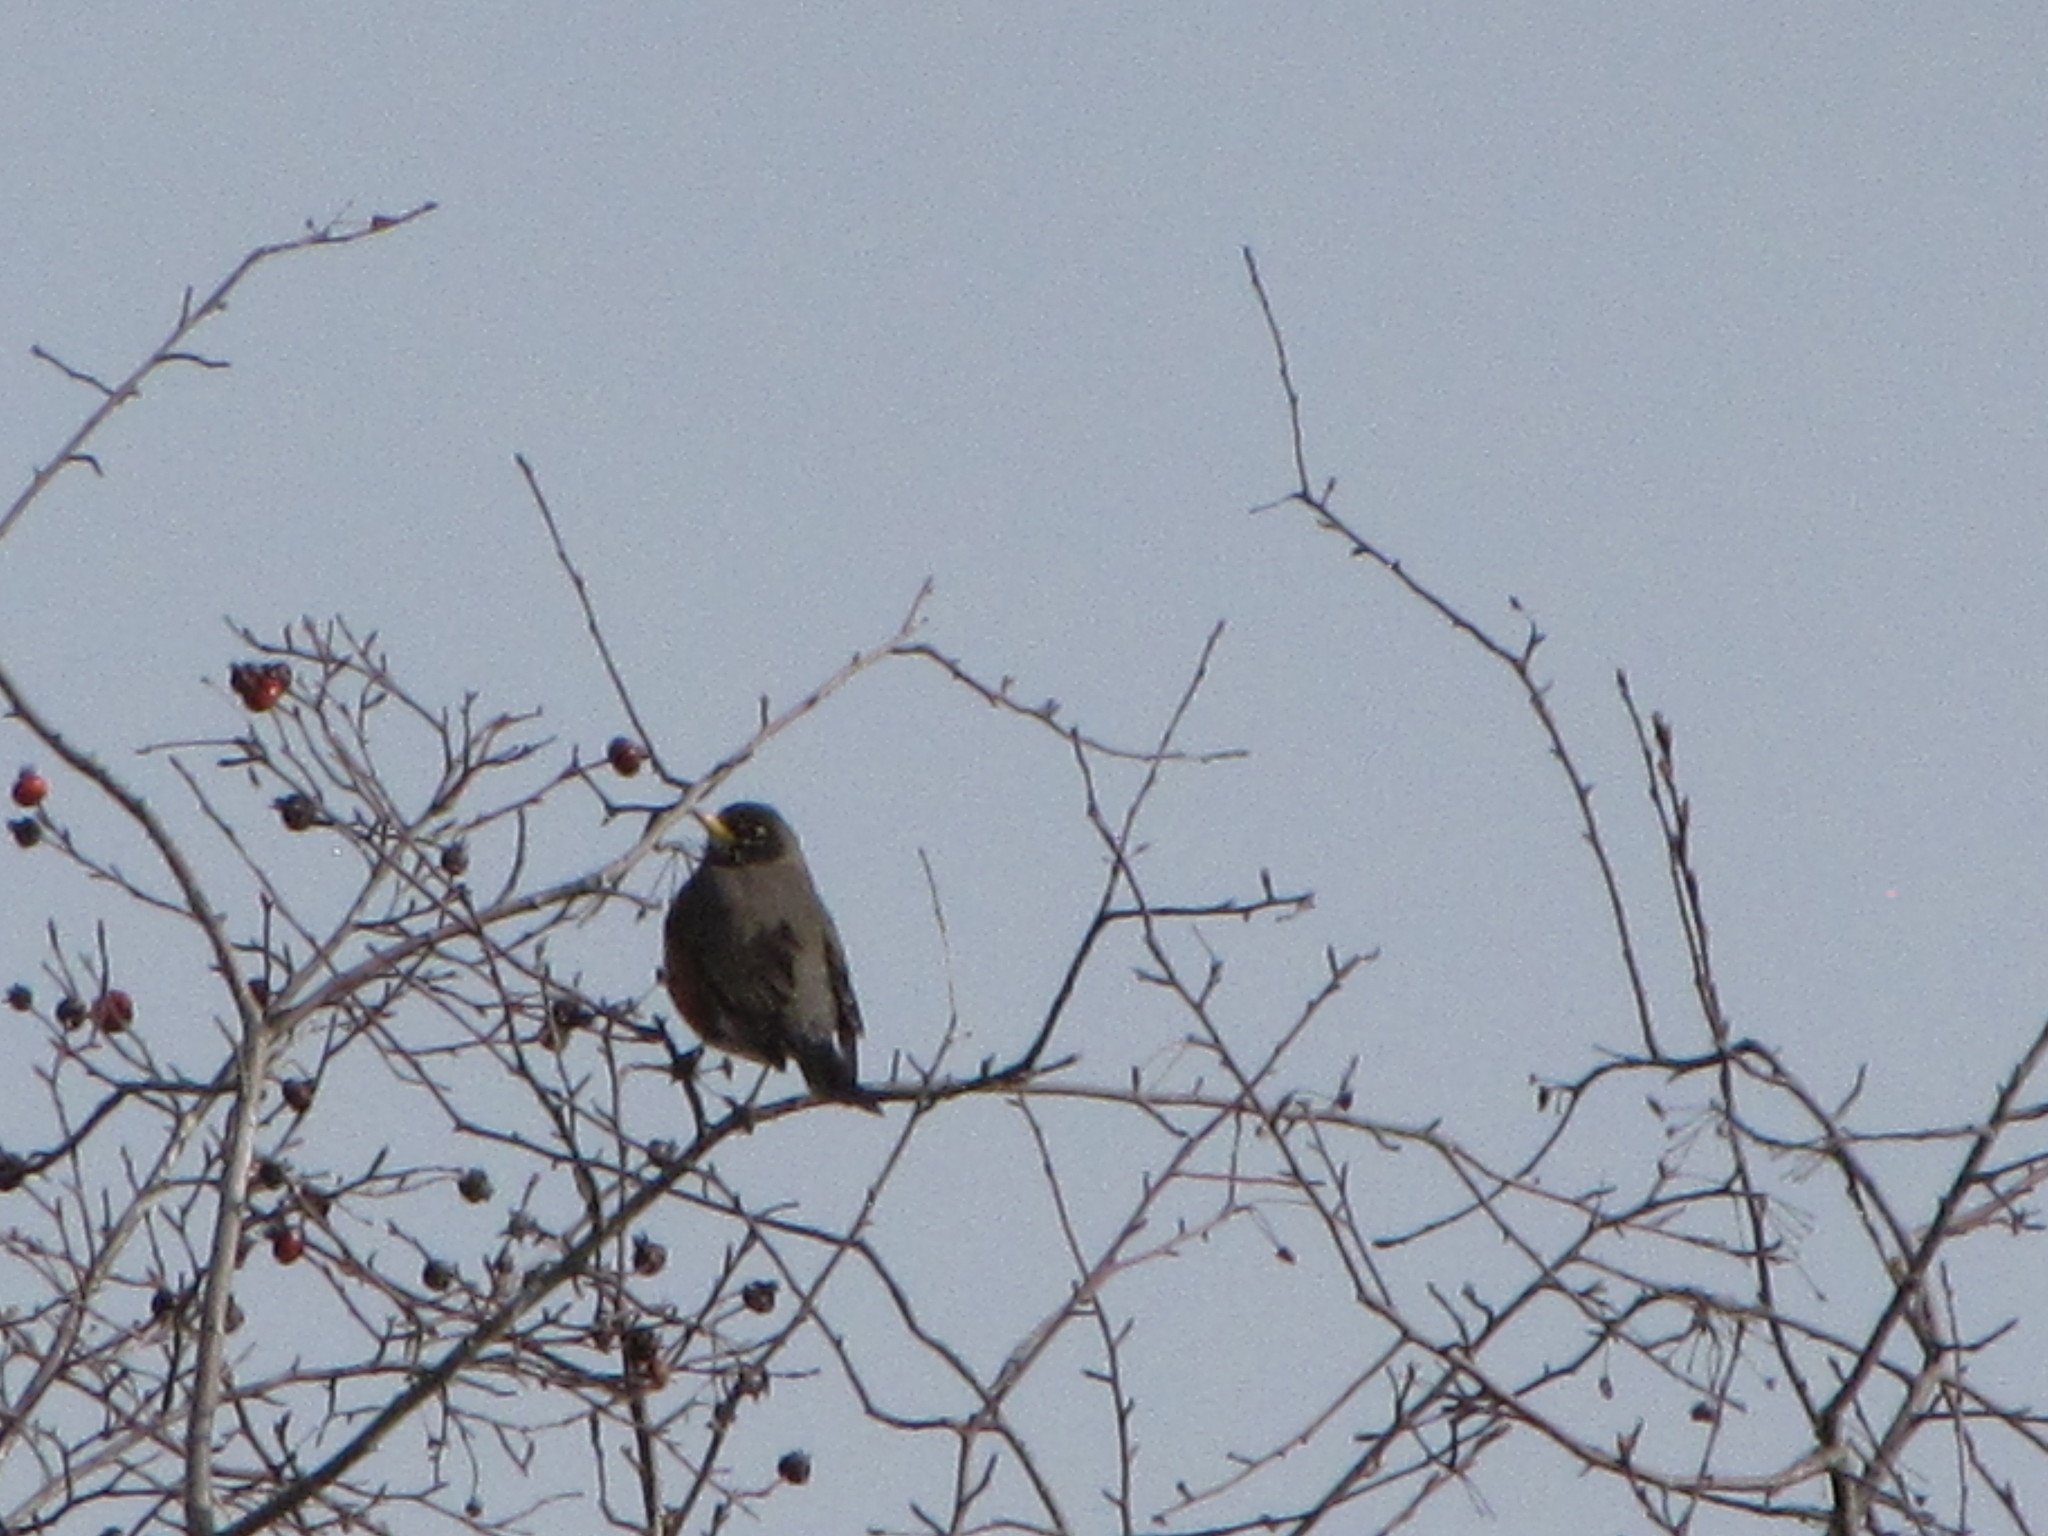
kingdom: Animalia
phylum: Chordata
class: Aves
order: Passeriformes
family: Turdidae
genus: Turdus
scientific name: Turdus migratorius
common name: American robin
